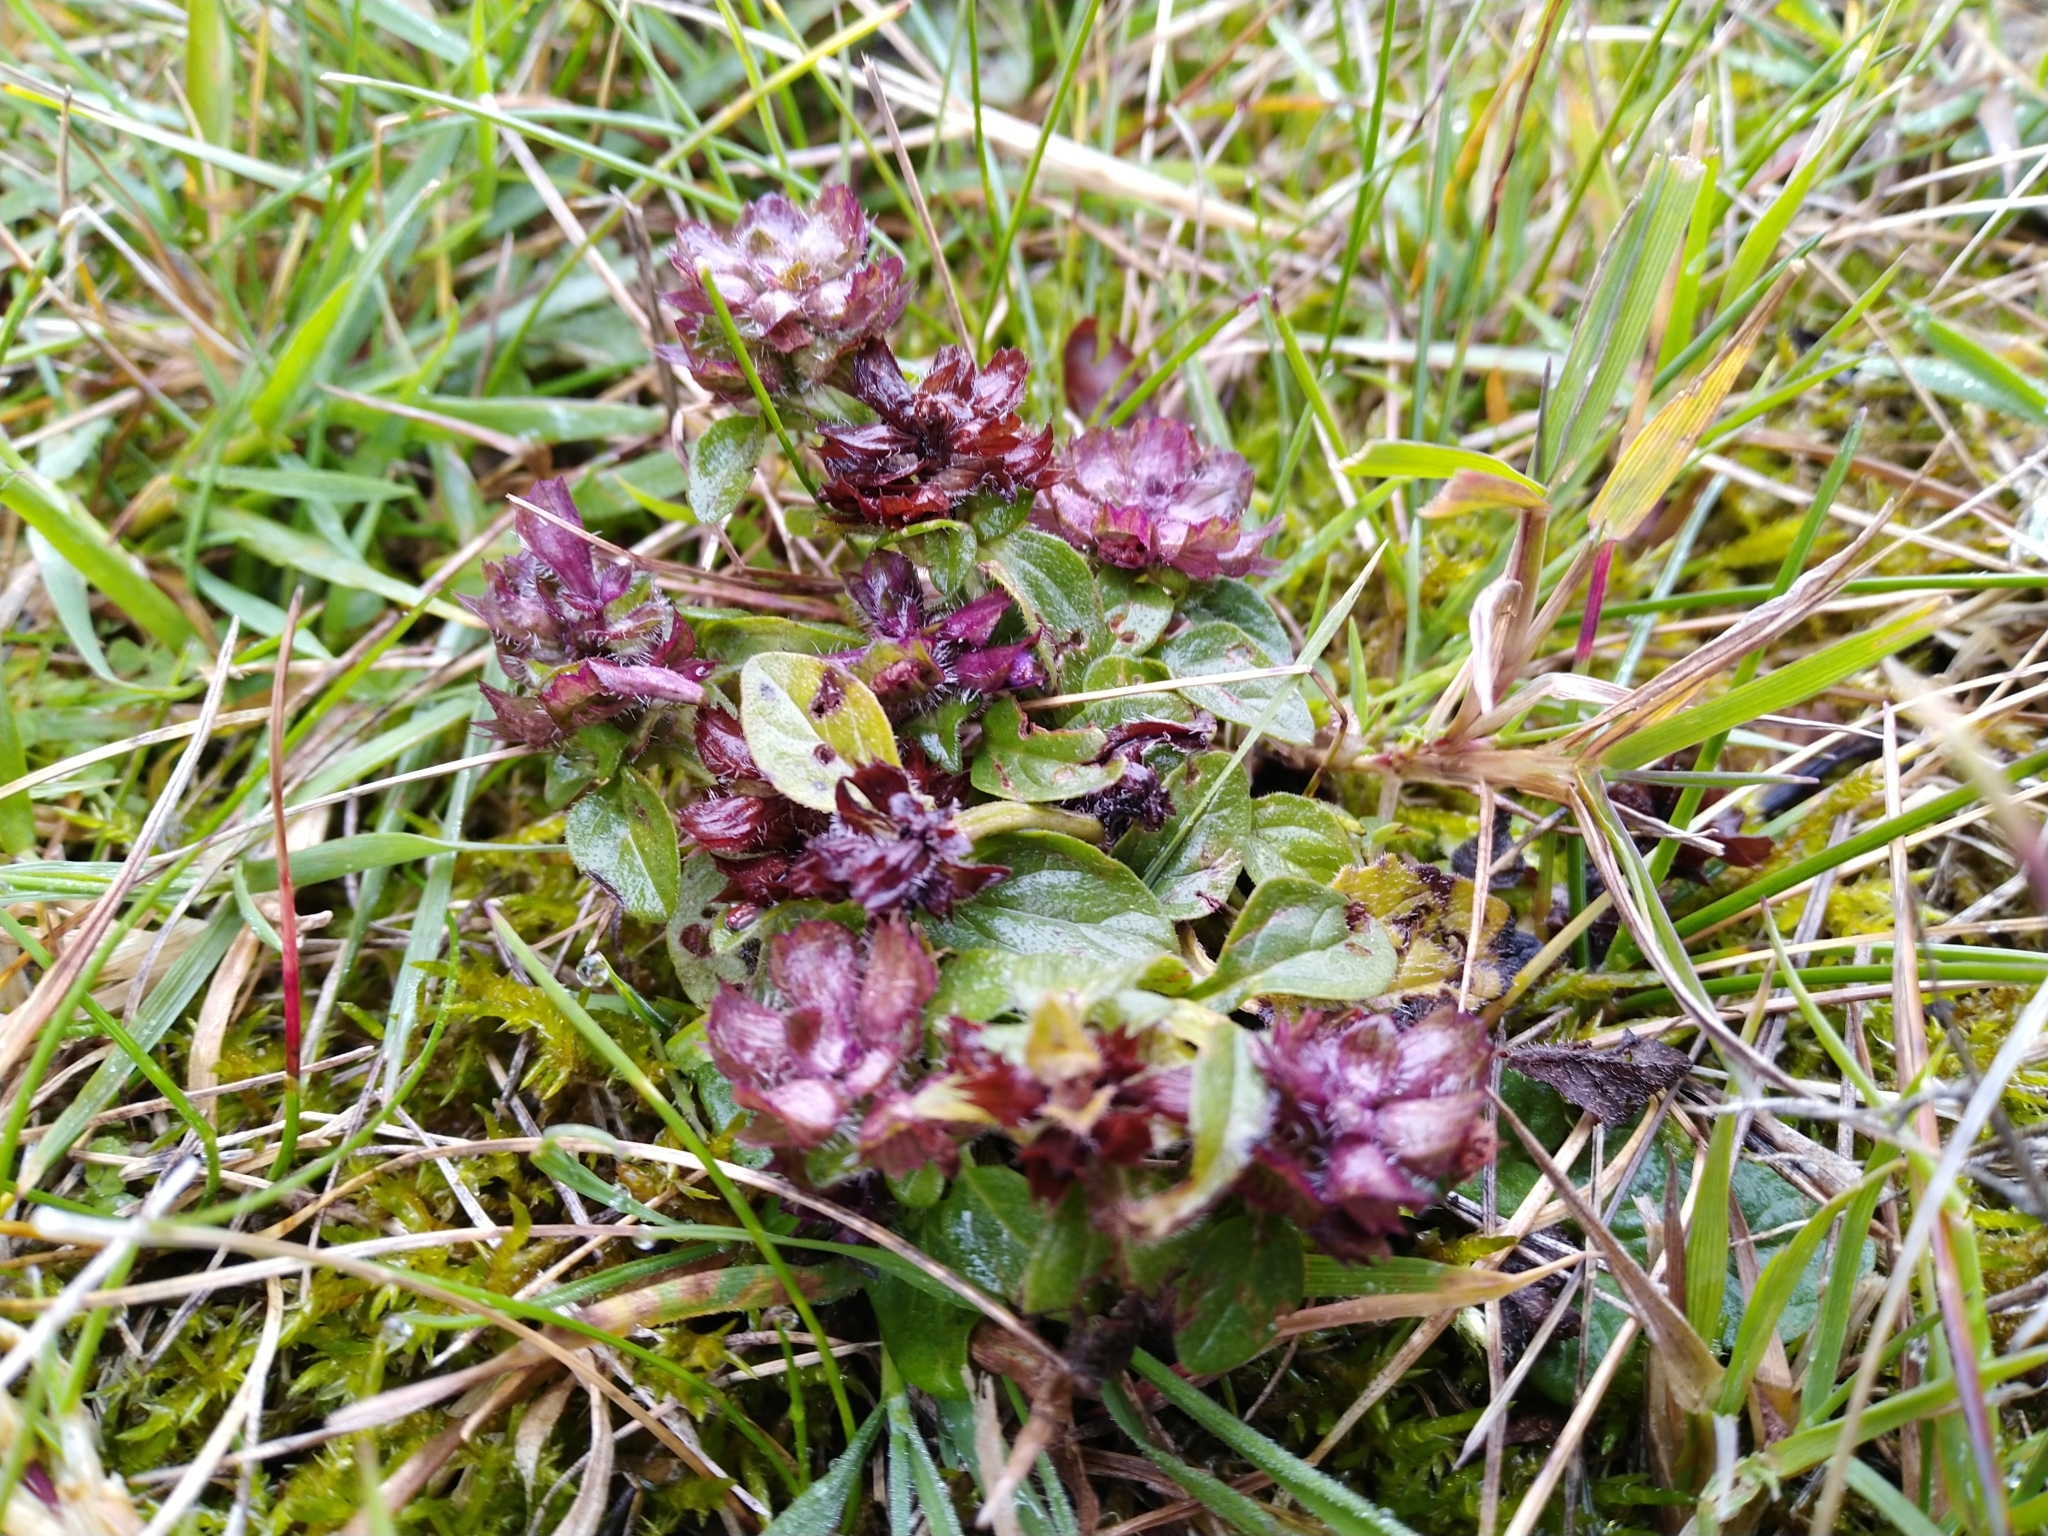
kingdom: Plantae
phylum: Tracheophyta
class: Magnoliopsida
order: Lamiales
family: Lamiaceae
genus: Prunella
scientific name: Prunella vulgaris
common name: Heal-all
